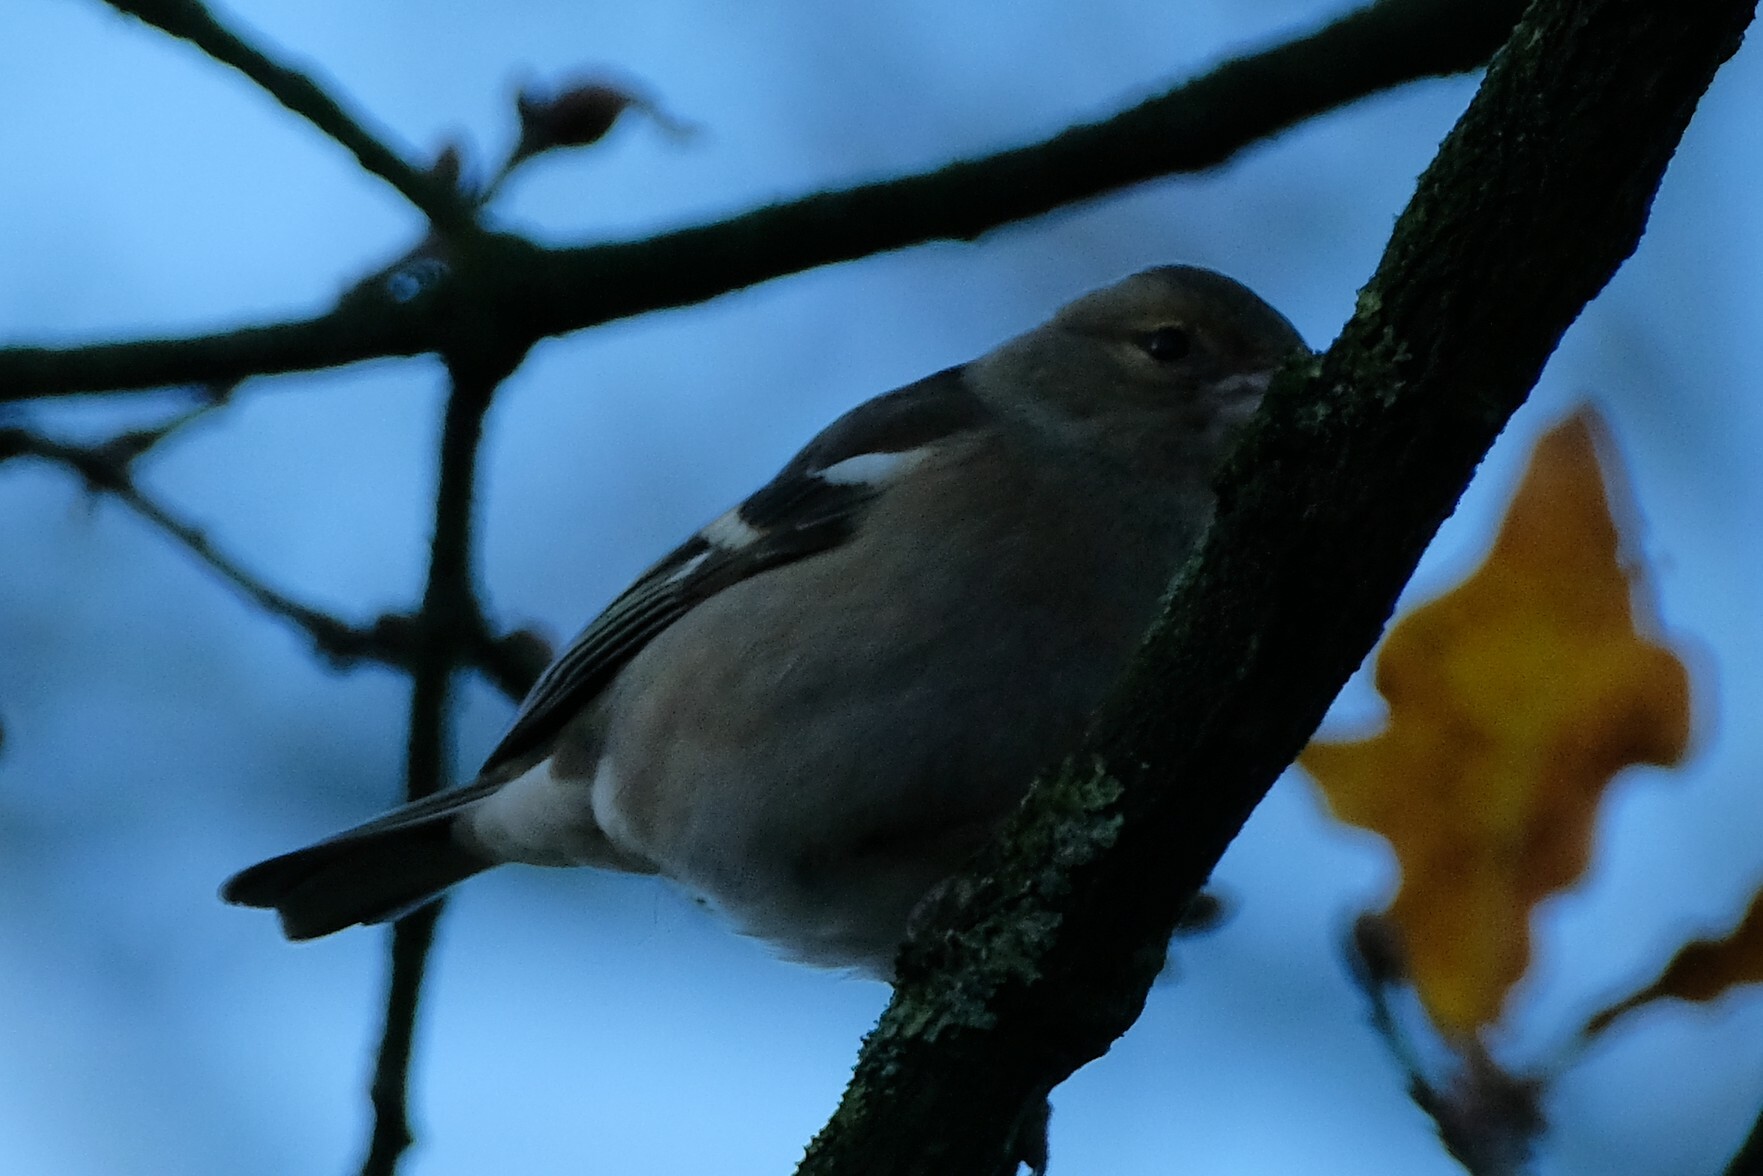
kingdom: Animalia
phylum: Chordata
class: Aves
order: Passeriformes
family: Fringillidae
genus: Fringilla
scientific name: Fringilla coelebs
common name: Common chaffinch
